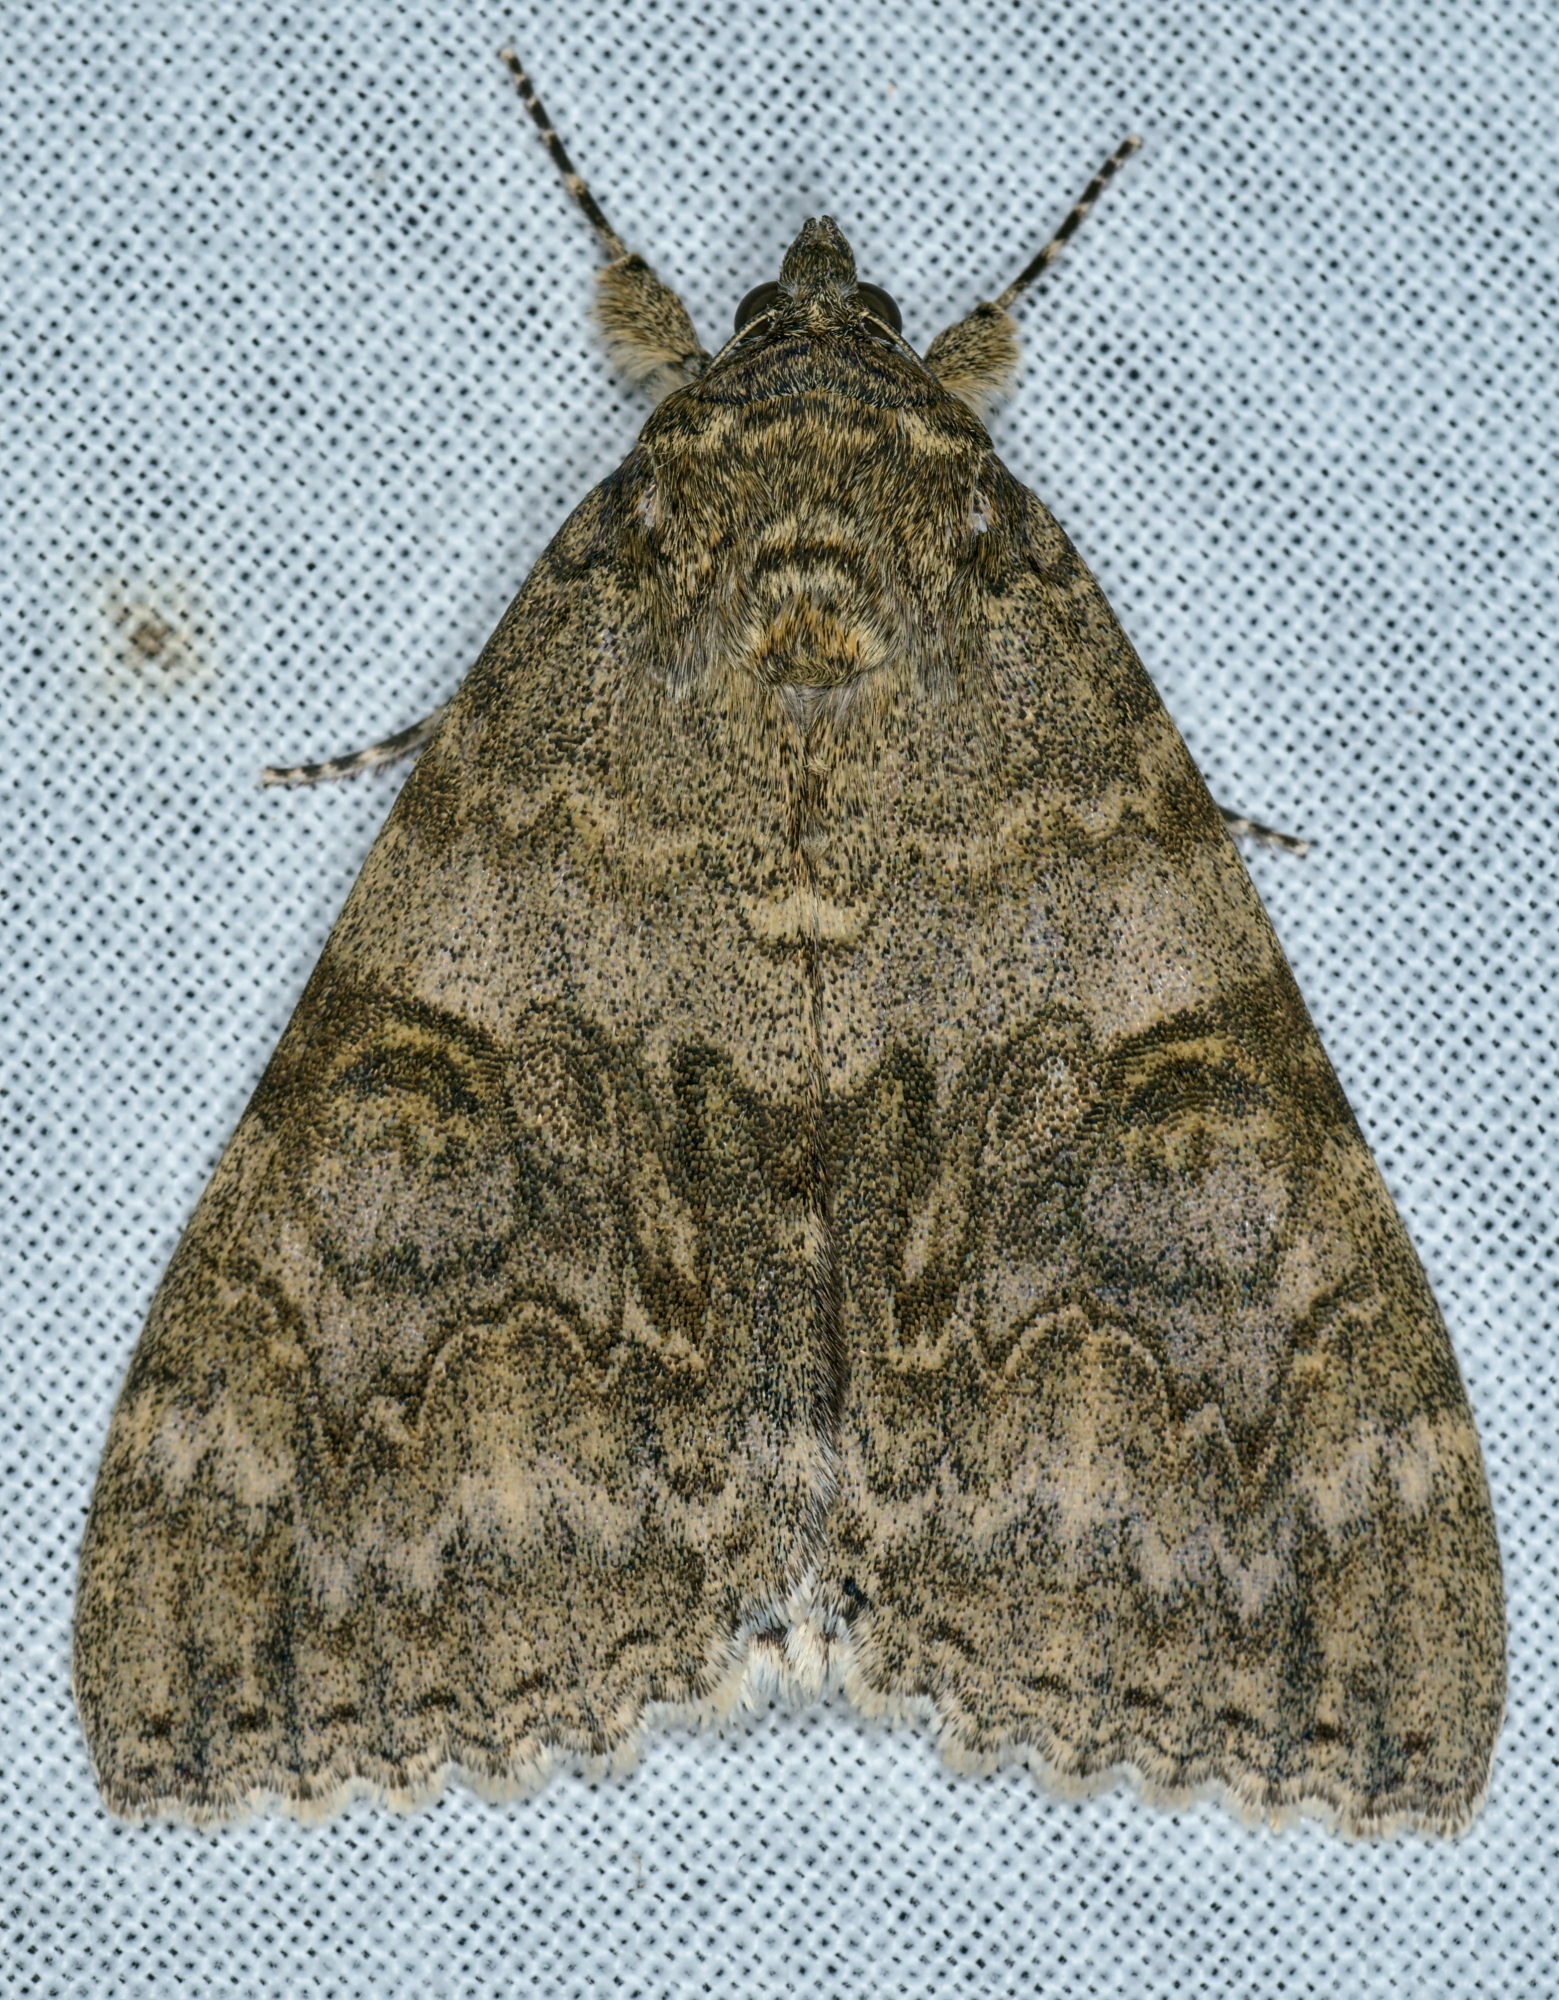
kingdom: Animalia
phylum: Arthropoda
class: Insecta
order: Lepidoptera
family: Erebidae
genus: Catocala
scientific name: Catocala nupta
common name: Red underwing
